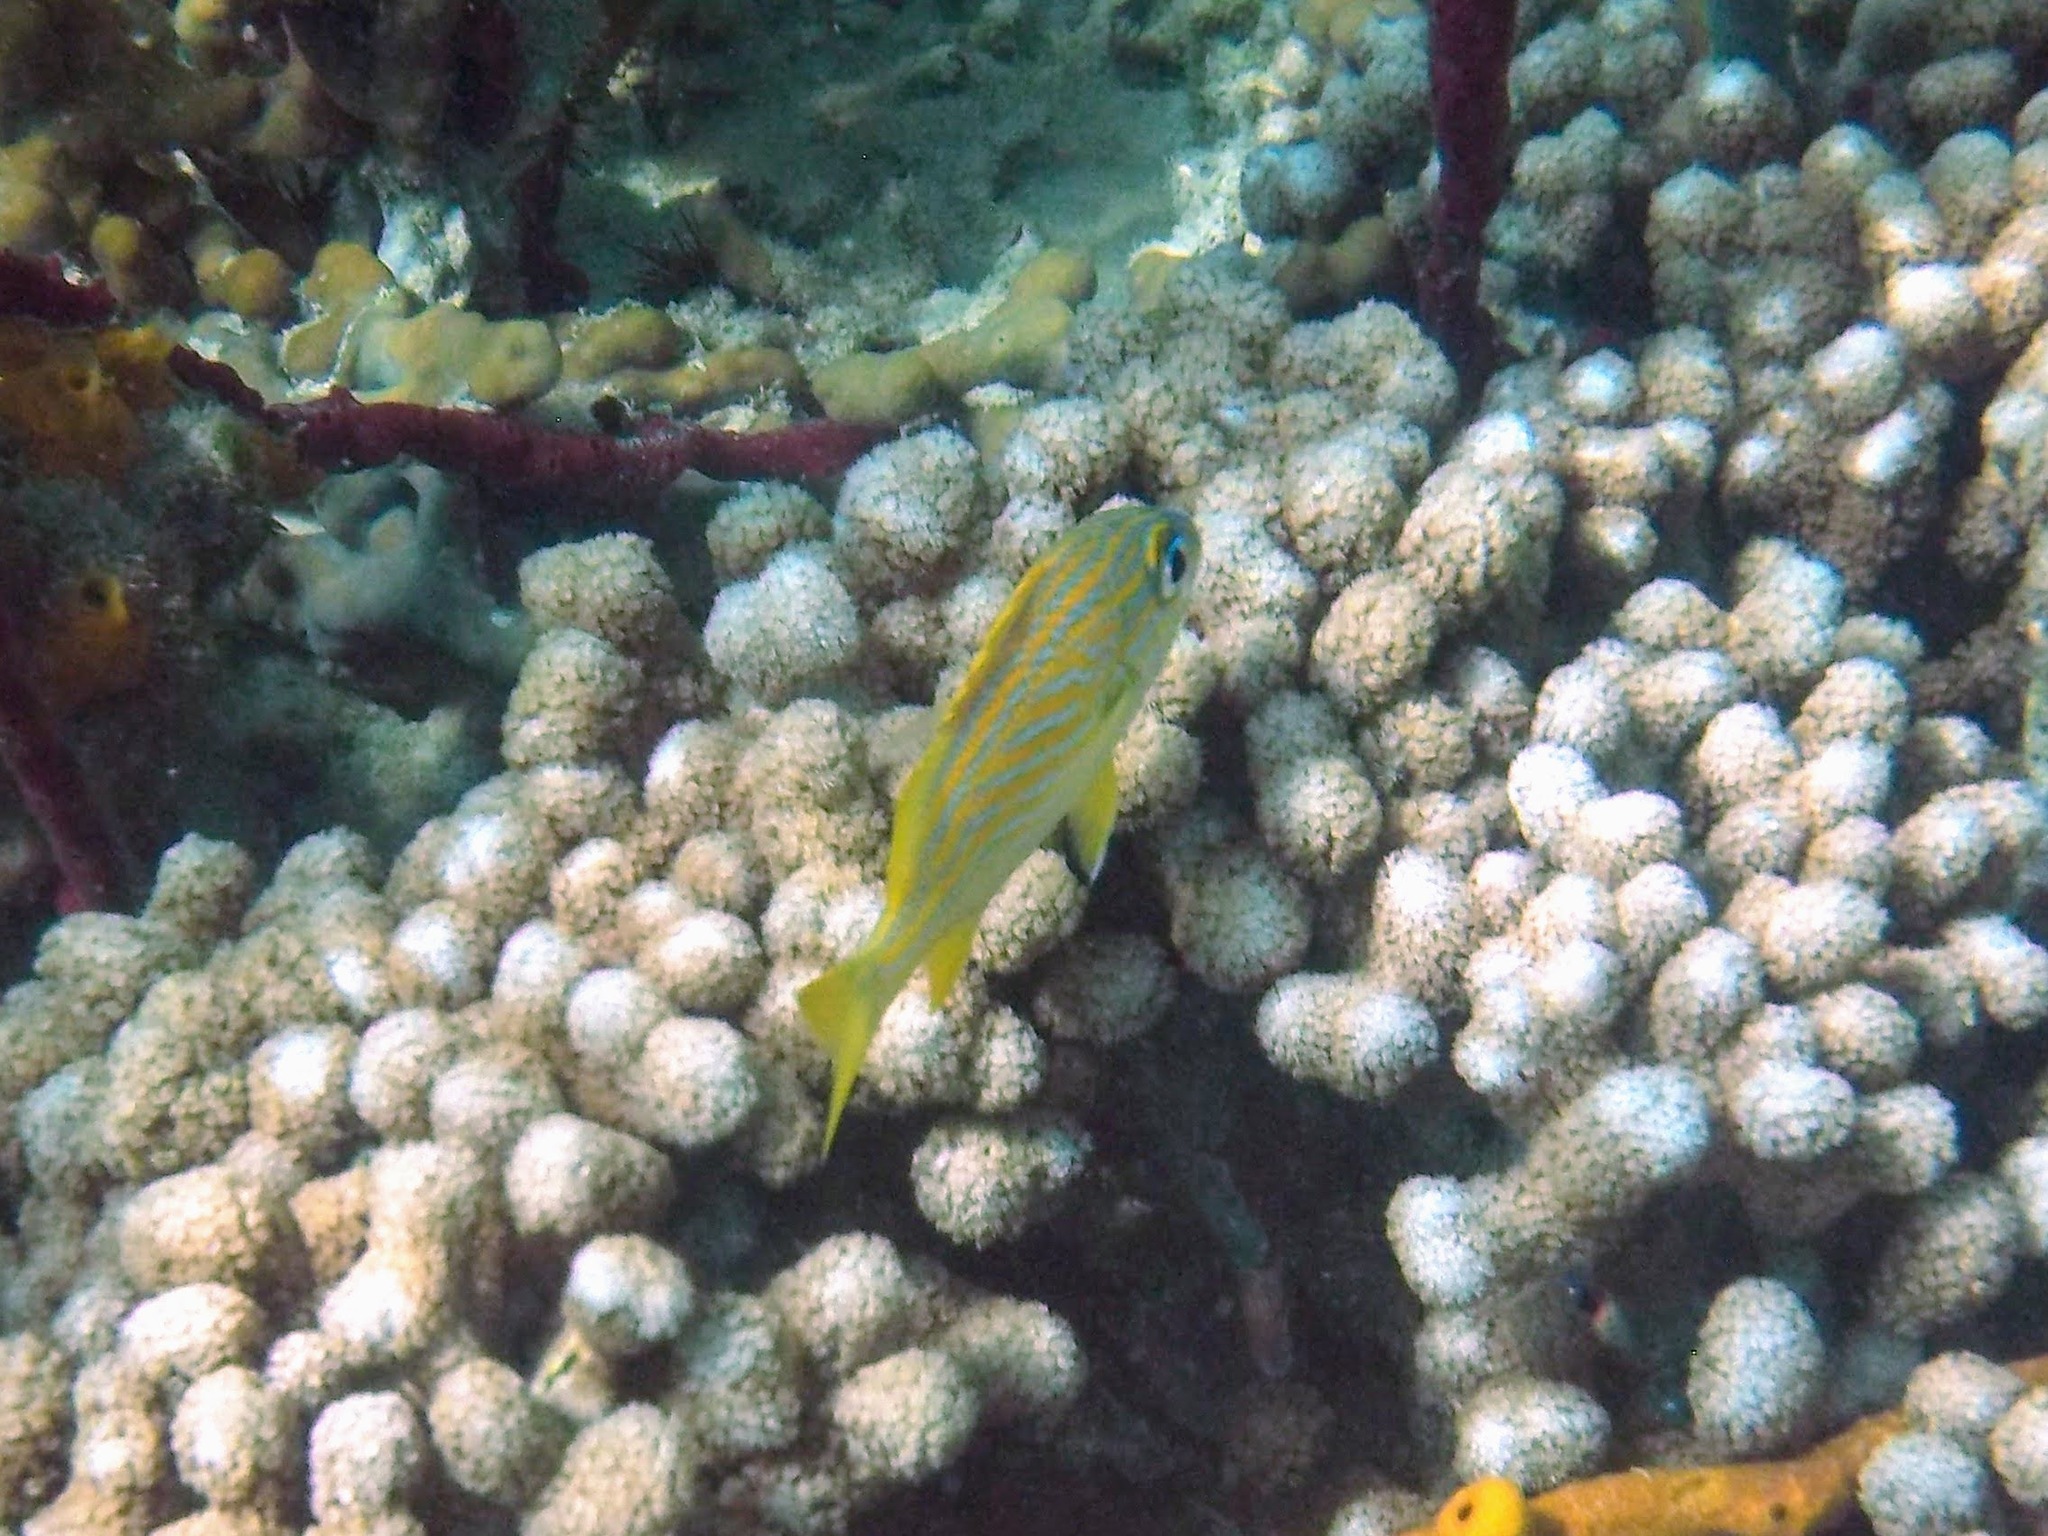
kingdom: Animalia
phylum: Chordata
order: Perciformes
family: Haemulidae
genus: Haemulon
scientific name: Haemulon flavolineatum
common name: French grunt
